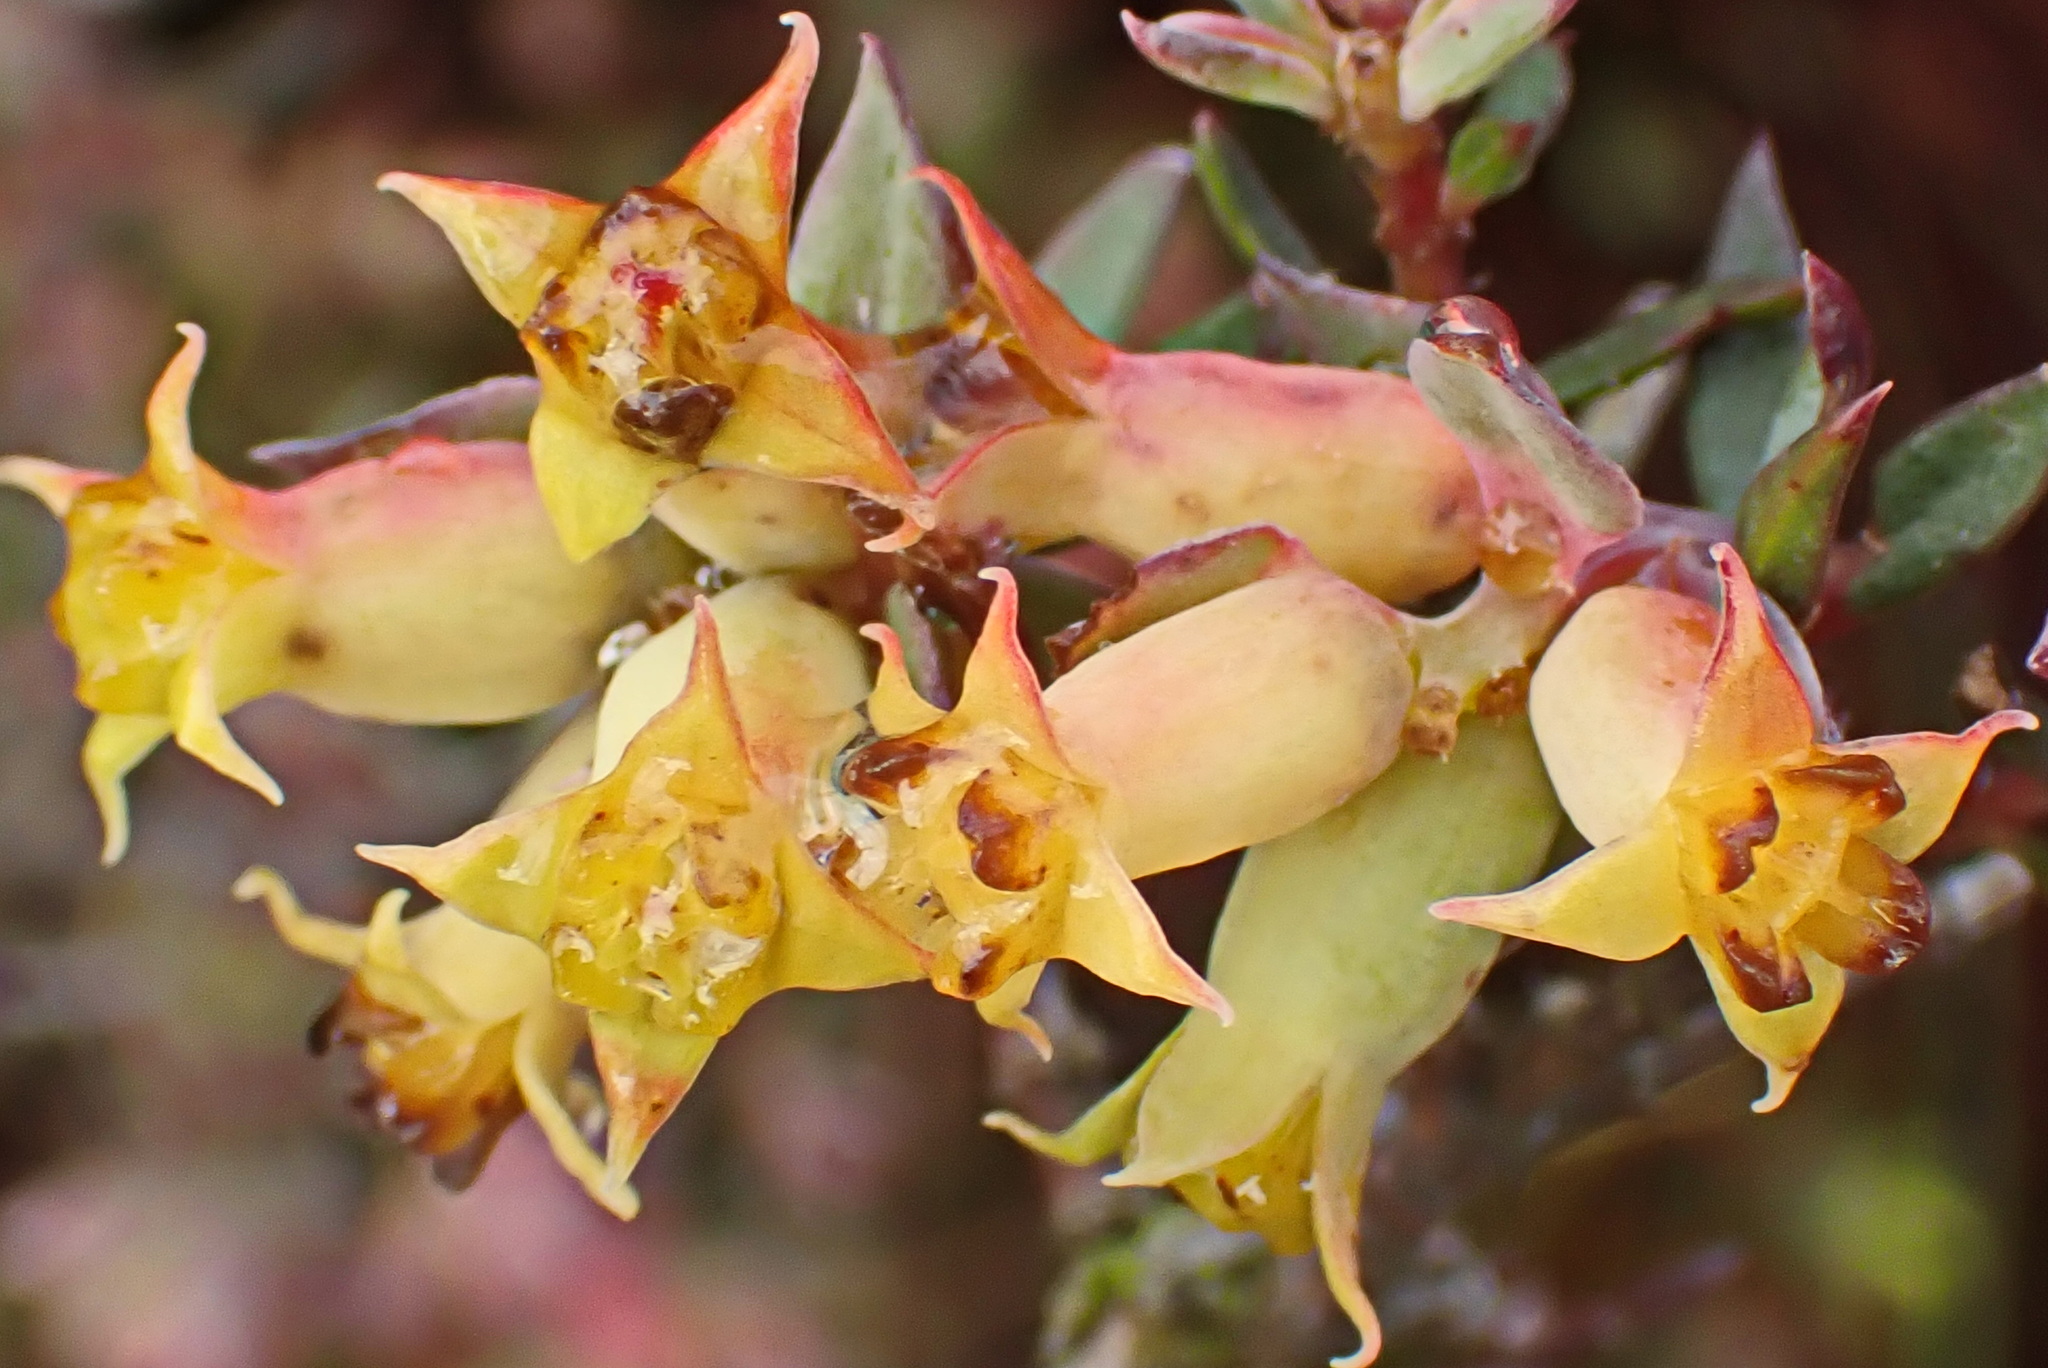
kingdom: Plantae
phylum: Tracheophyta
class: Magnoliopsida
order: Myrtales
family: Penaeaceae
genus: Penaea
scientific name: Penaea acutifolia
